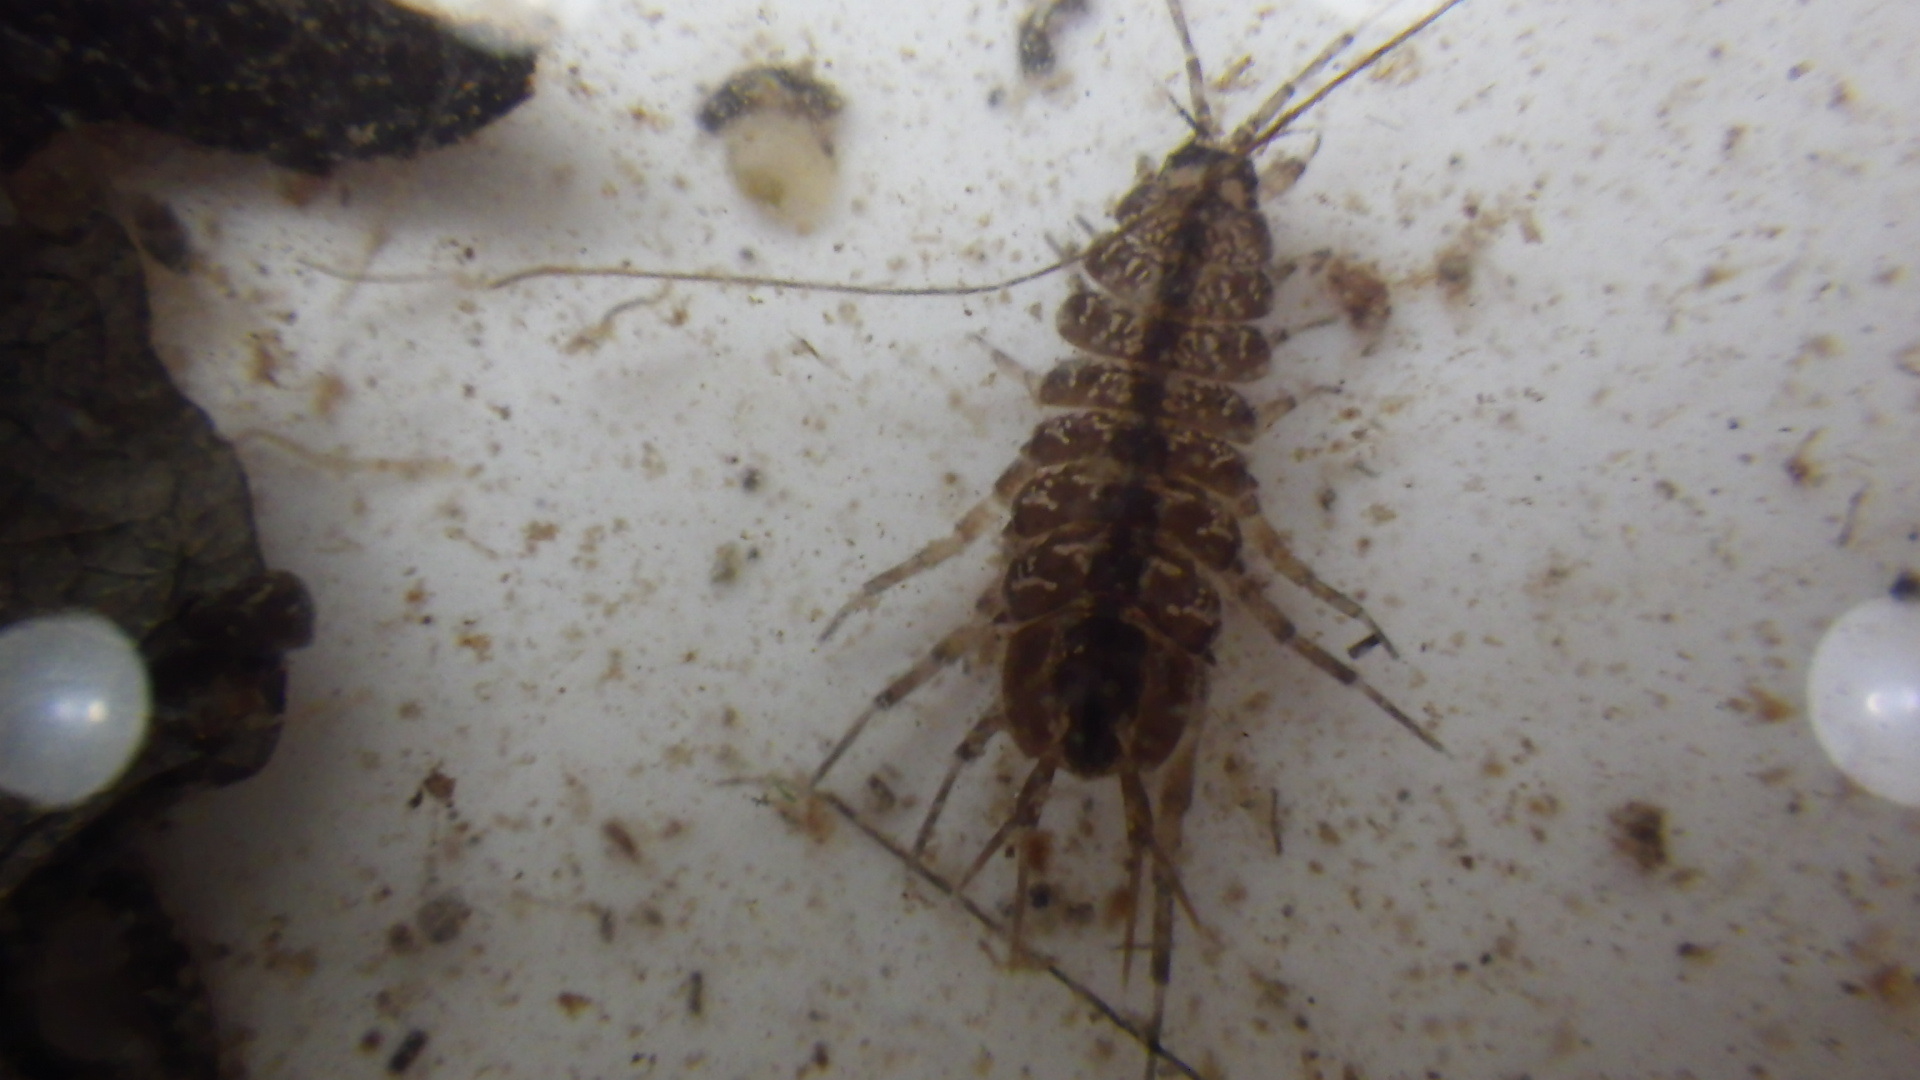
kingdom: Animalia
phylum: Arthropoda
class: Malacostraca
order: Isopoda
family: Asellidae
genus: Asellus
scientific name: Asellus aquaticus
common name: Water hog lice/slaters
